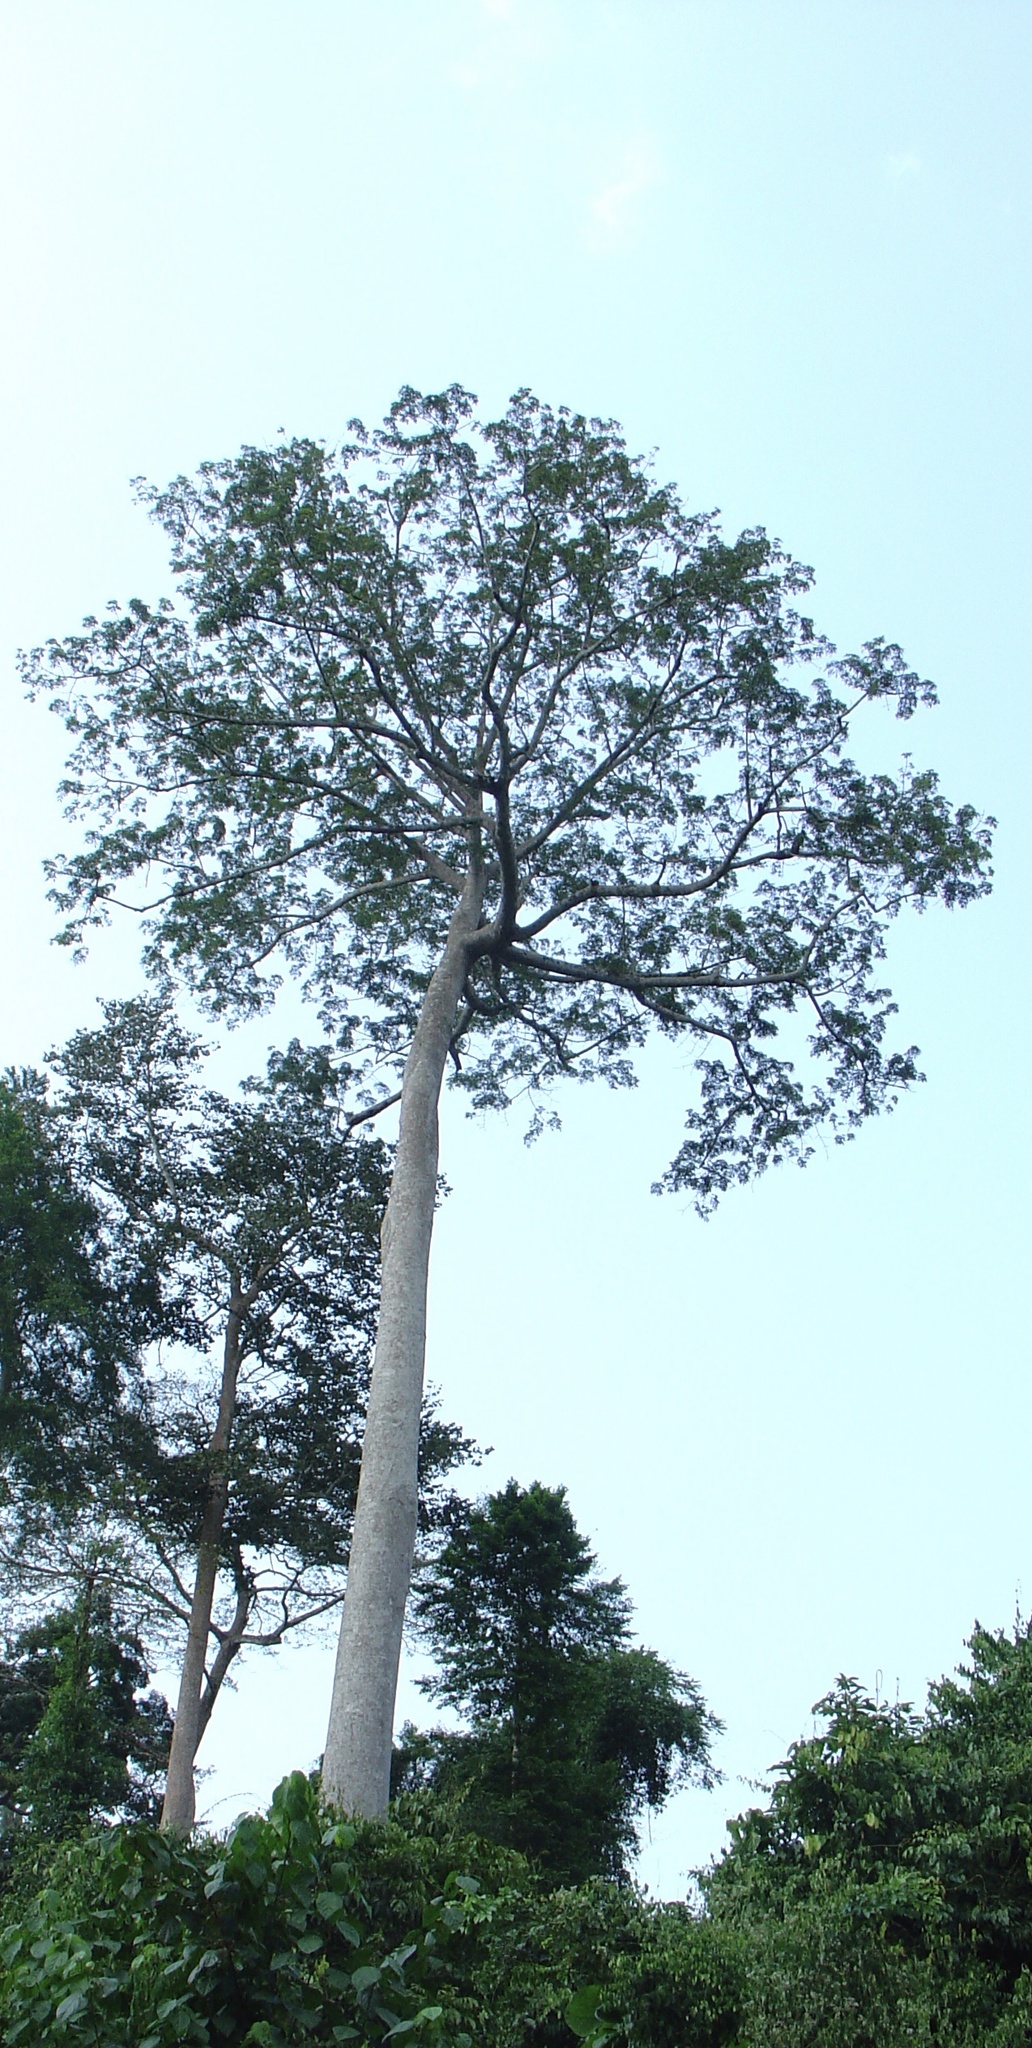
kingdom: Plantae
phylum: Tracheophyta
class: Magnoliopsida
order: Malvales
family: Malvaceae
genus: Ceiba
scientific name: Ceiba pentandra
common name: Kapok
